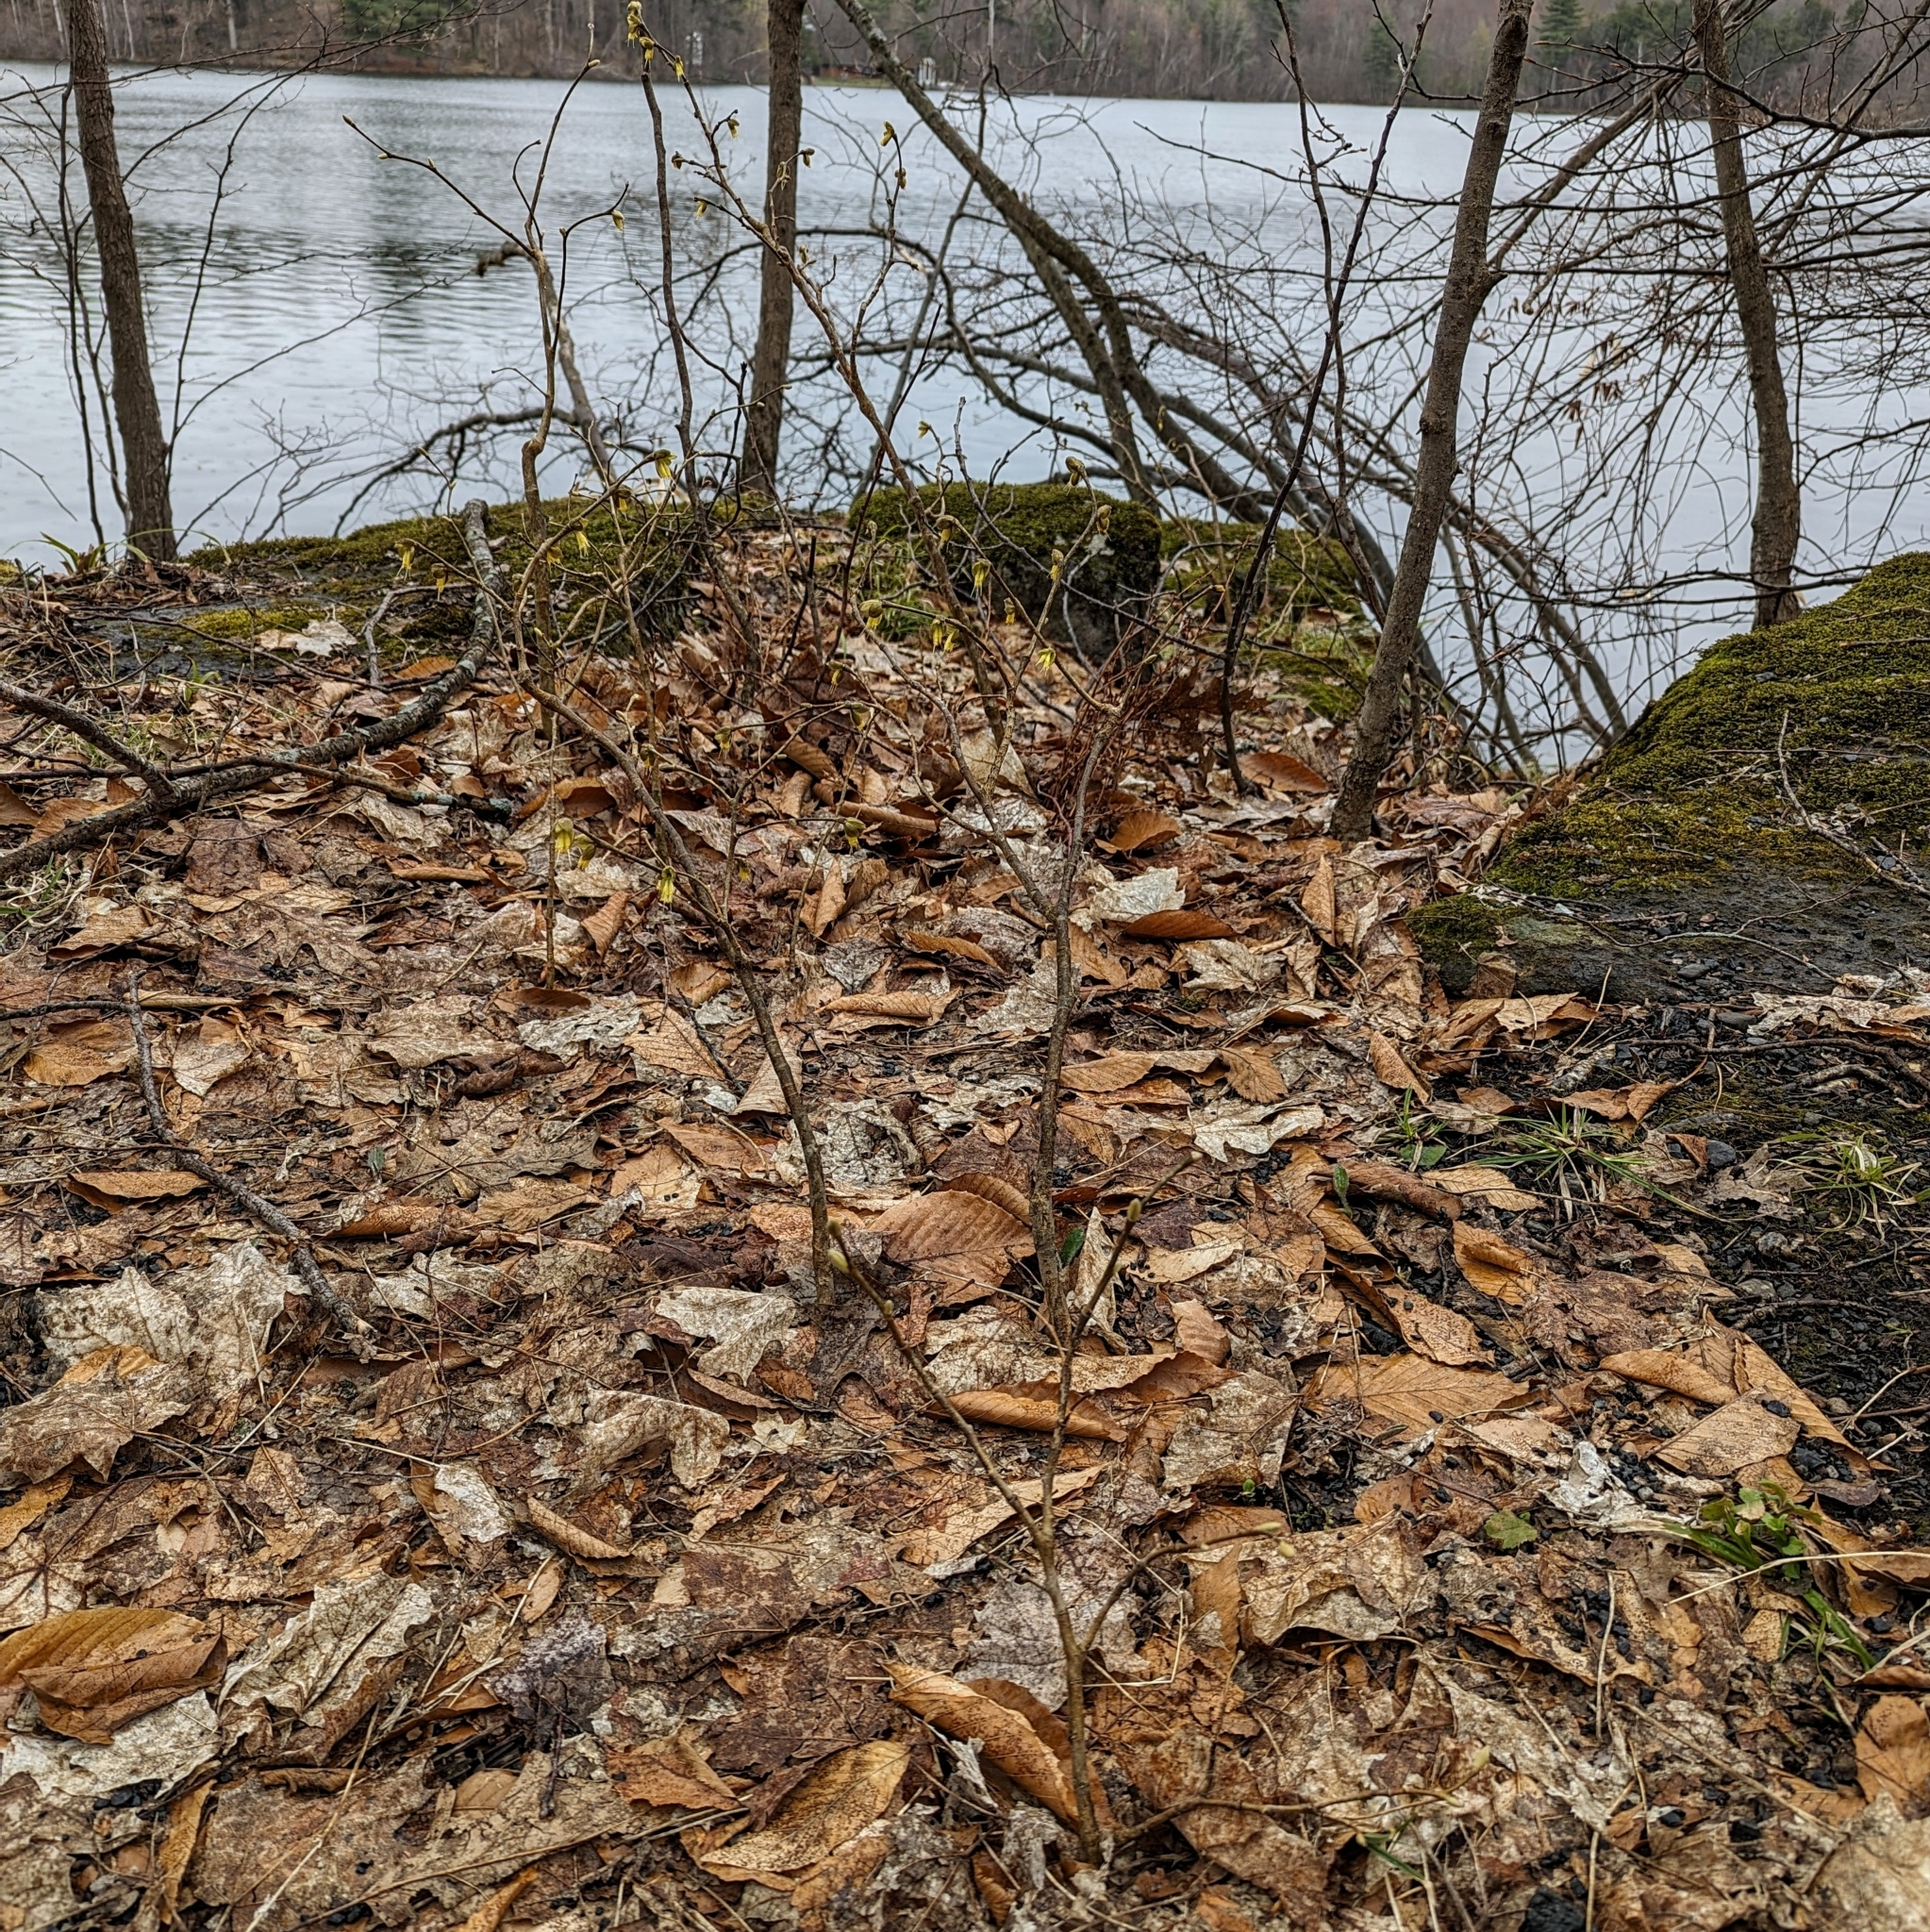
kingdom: Plantae
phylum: Tracheophyta
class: Magnoliopsida
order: Malvales
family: Thymelaeaceae
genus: Dirca
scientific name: Dirca palustris
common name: Leatherwood
